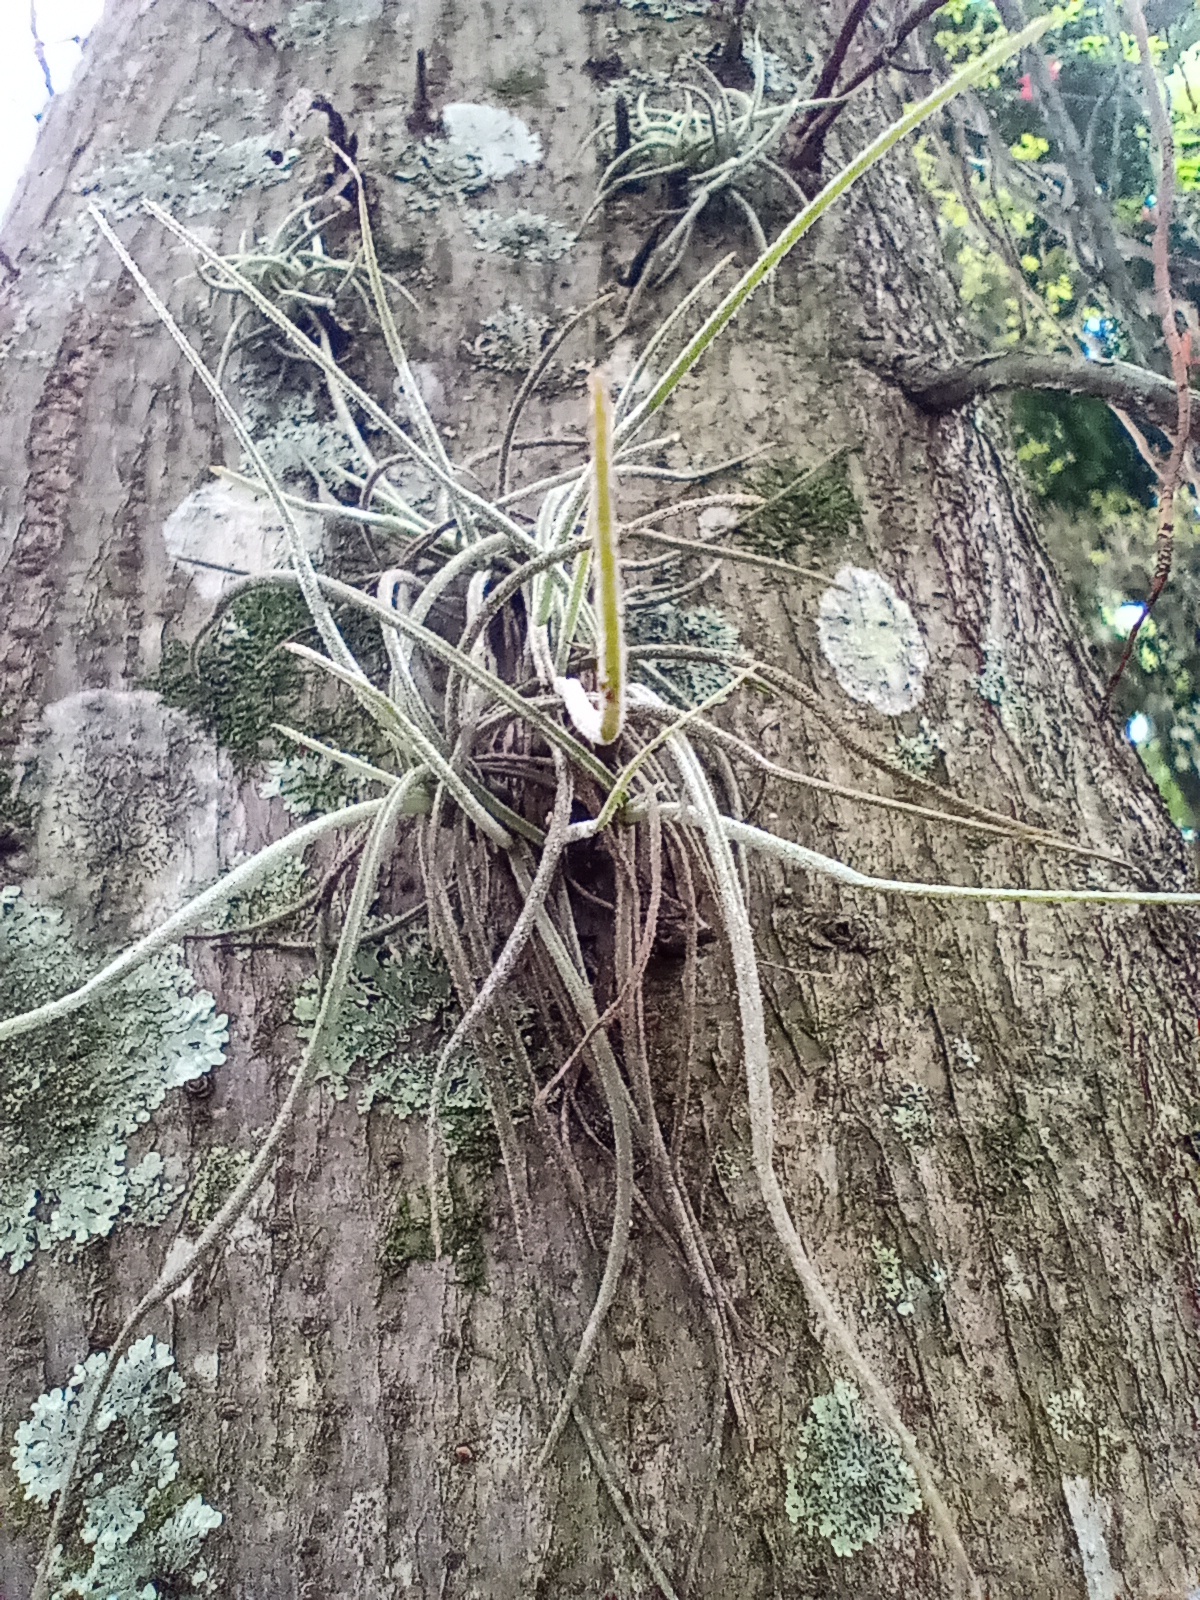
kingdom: Plantae
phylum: Tracheophyta
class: Liliopsida
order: Poales
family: Bromeliaceae
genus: Tillandsia
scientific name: Tillandsia recurvata
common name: Small ballmoss
